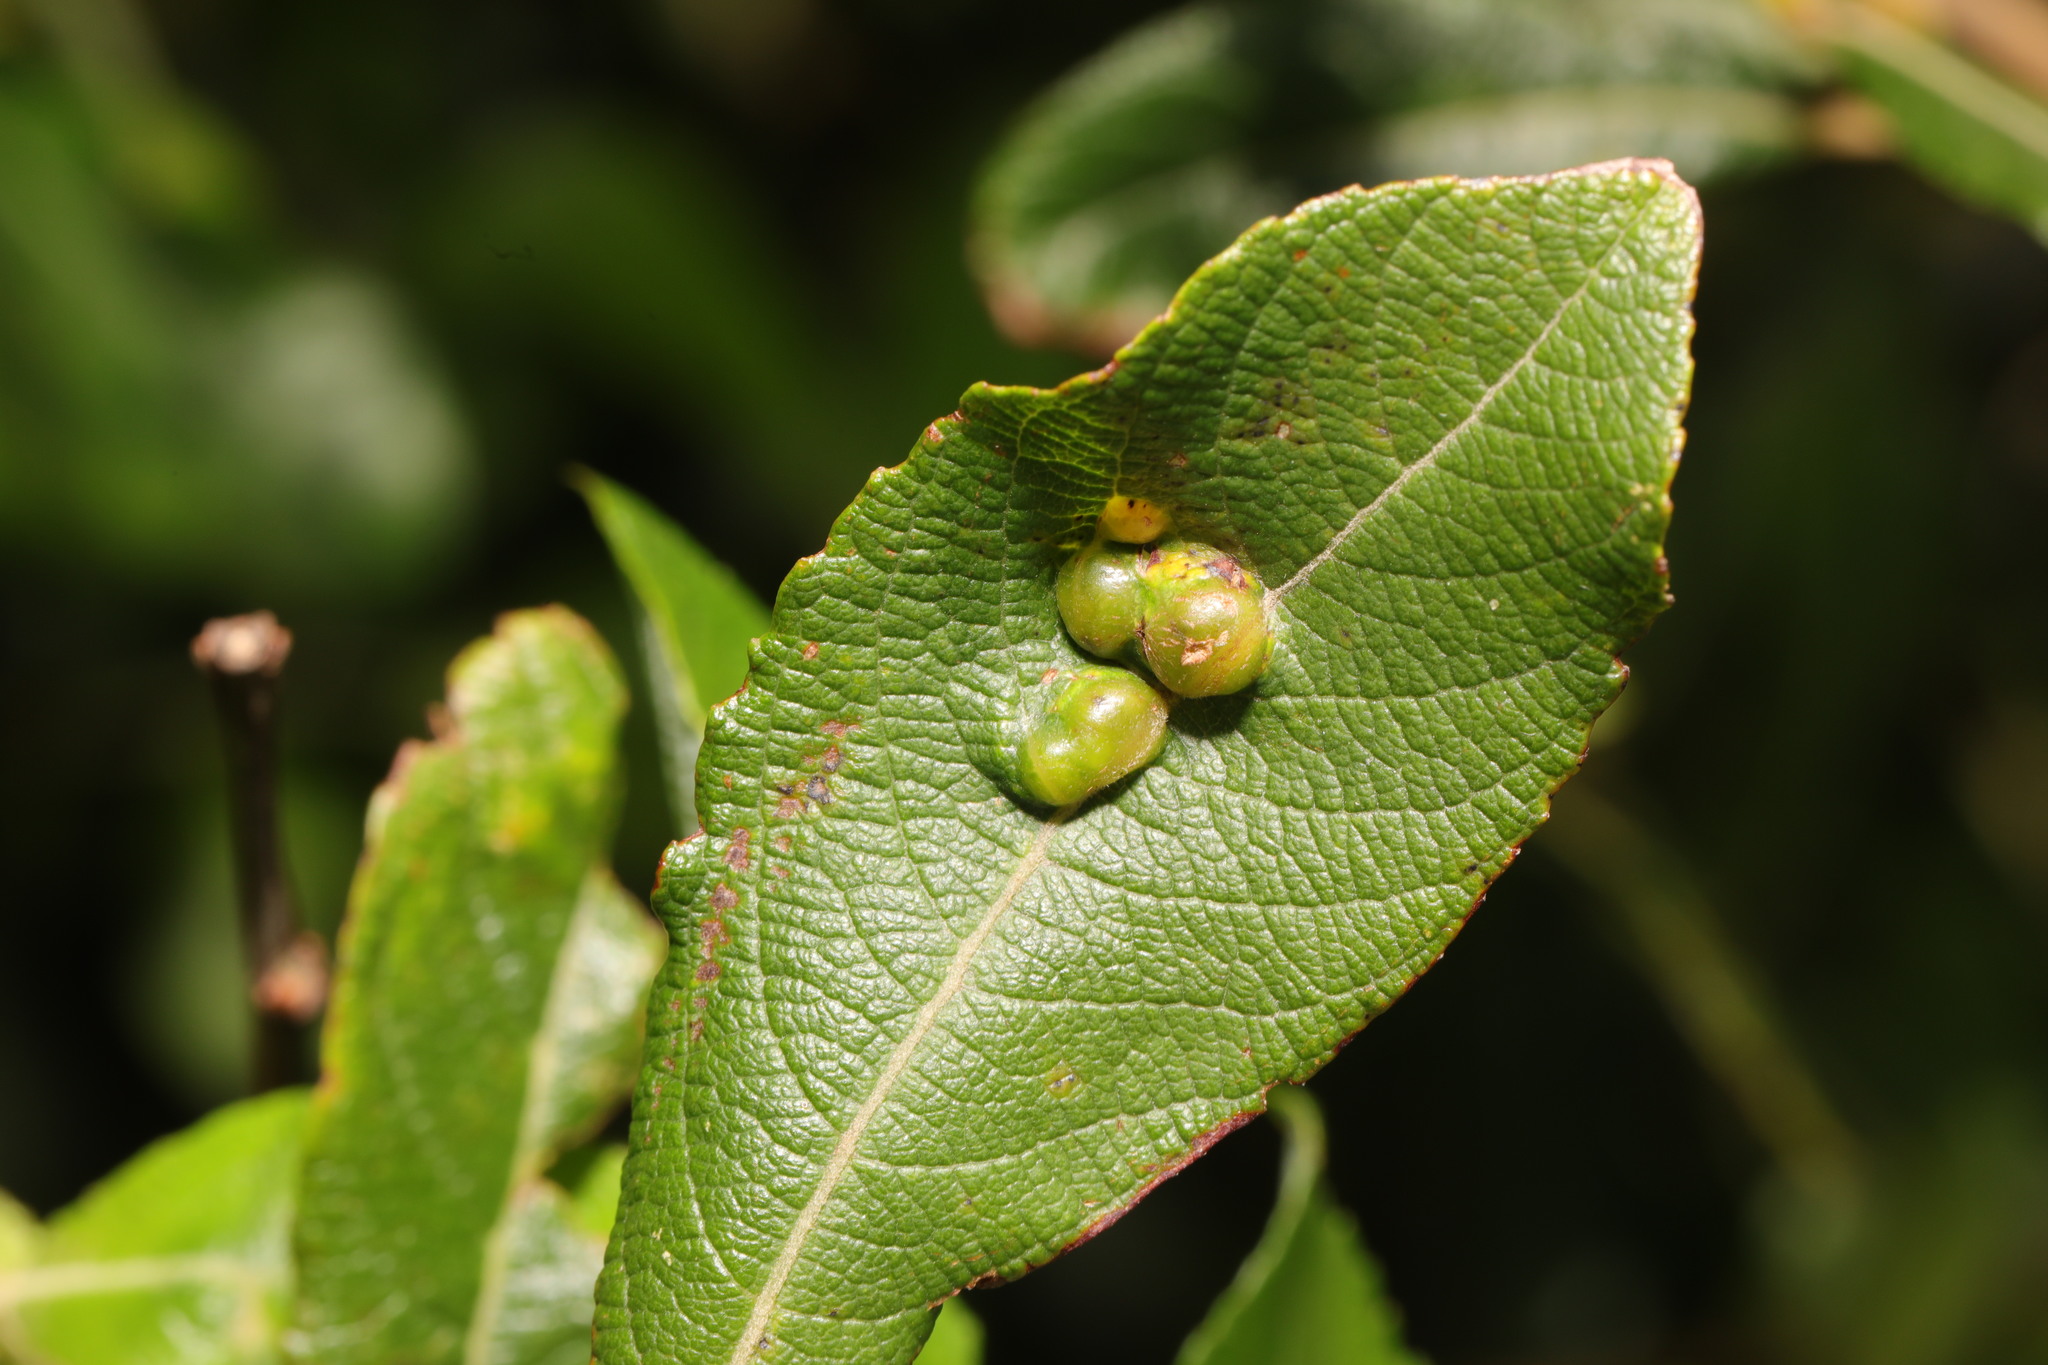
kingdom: Animalia
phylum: Arthropoda
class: Insecta
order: Diptera
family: Cecidomyiidae
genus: Iteomyia
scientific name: Iteomyia major
